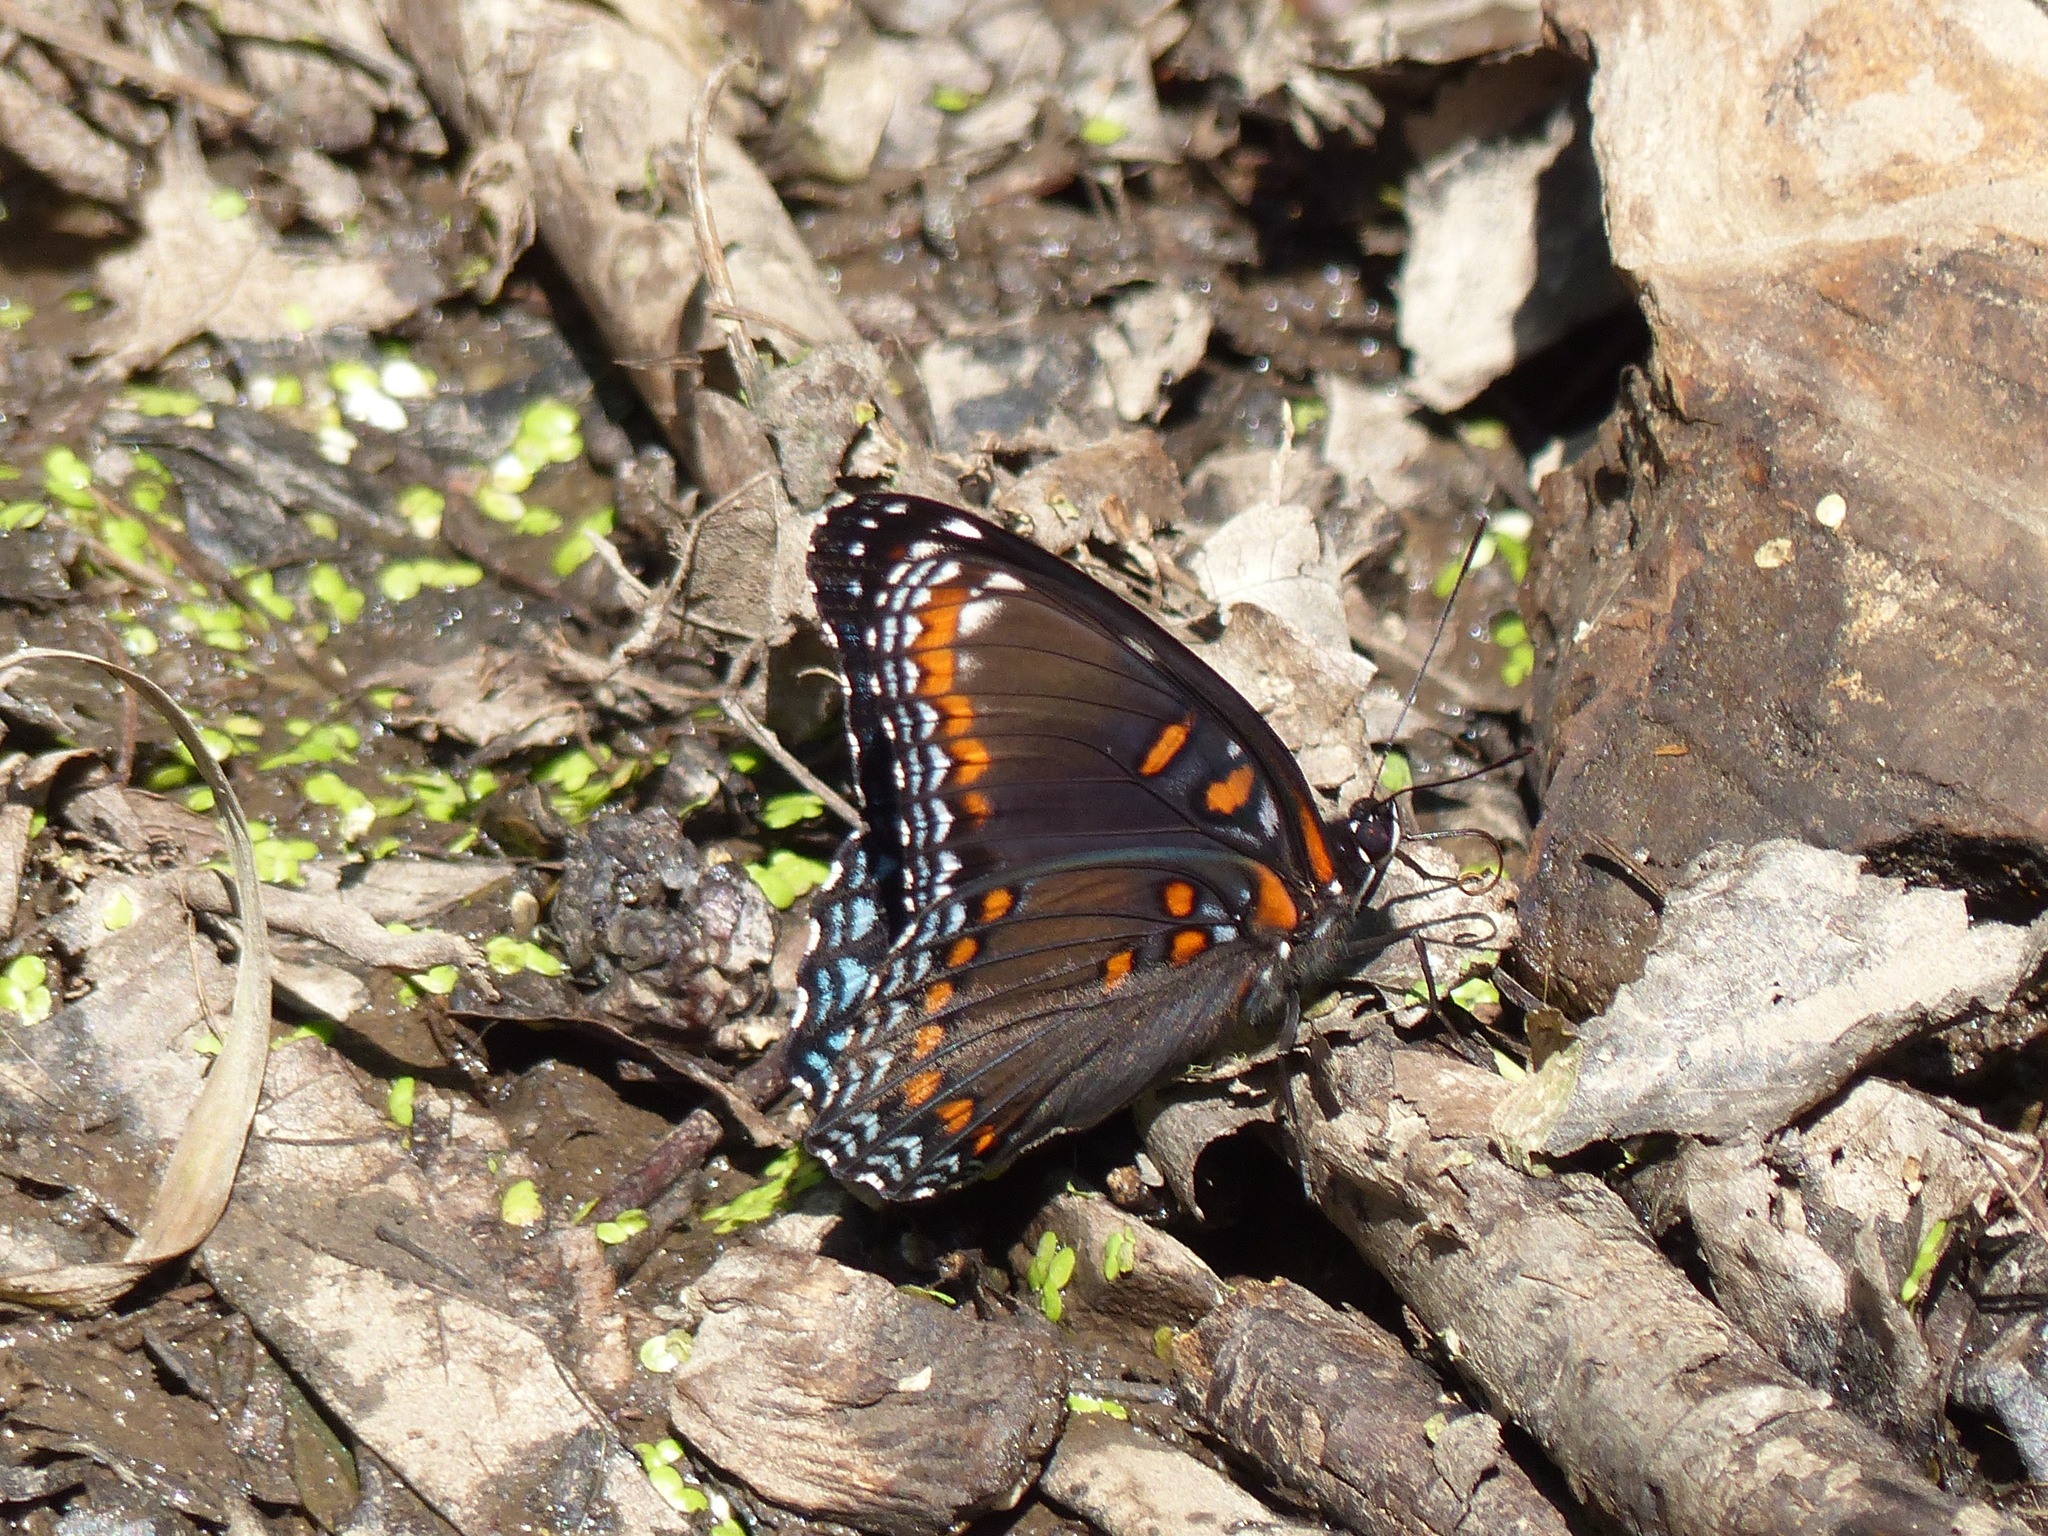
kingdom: Animalia
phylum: Arthropoda
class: Insecta
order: Lepidoptera
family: Nymphalidae
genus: Limenitis
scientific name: Limenitis arthemis
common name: Red-spotted admiral
